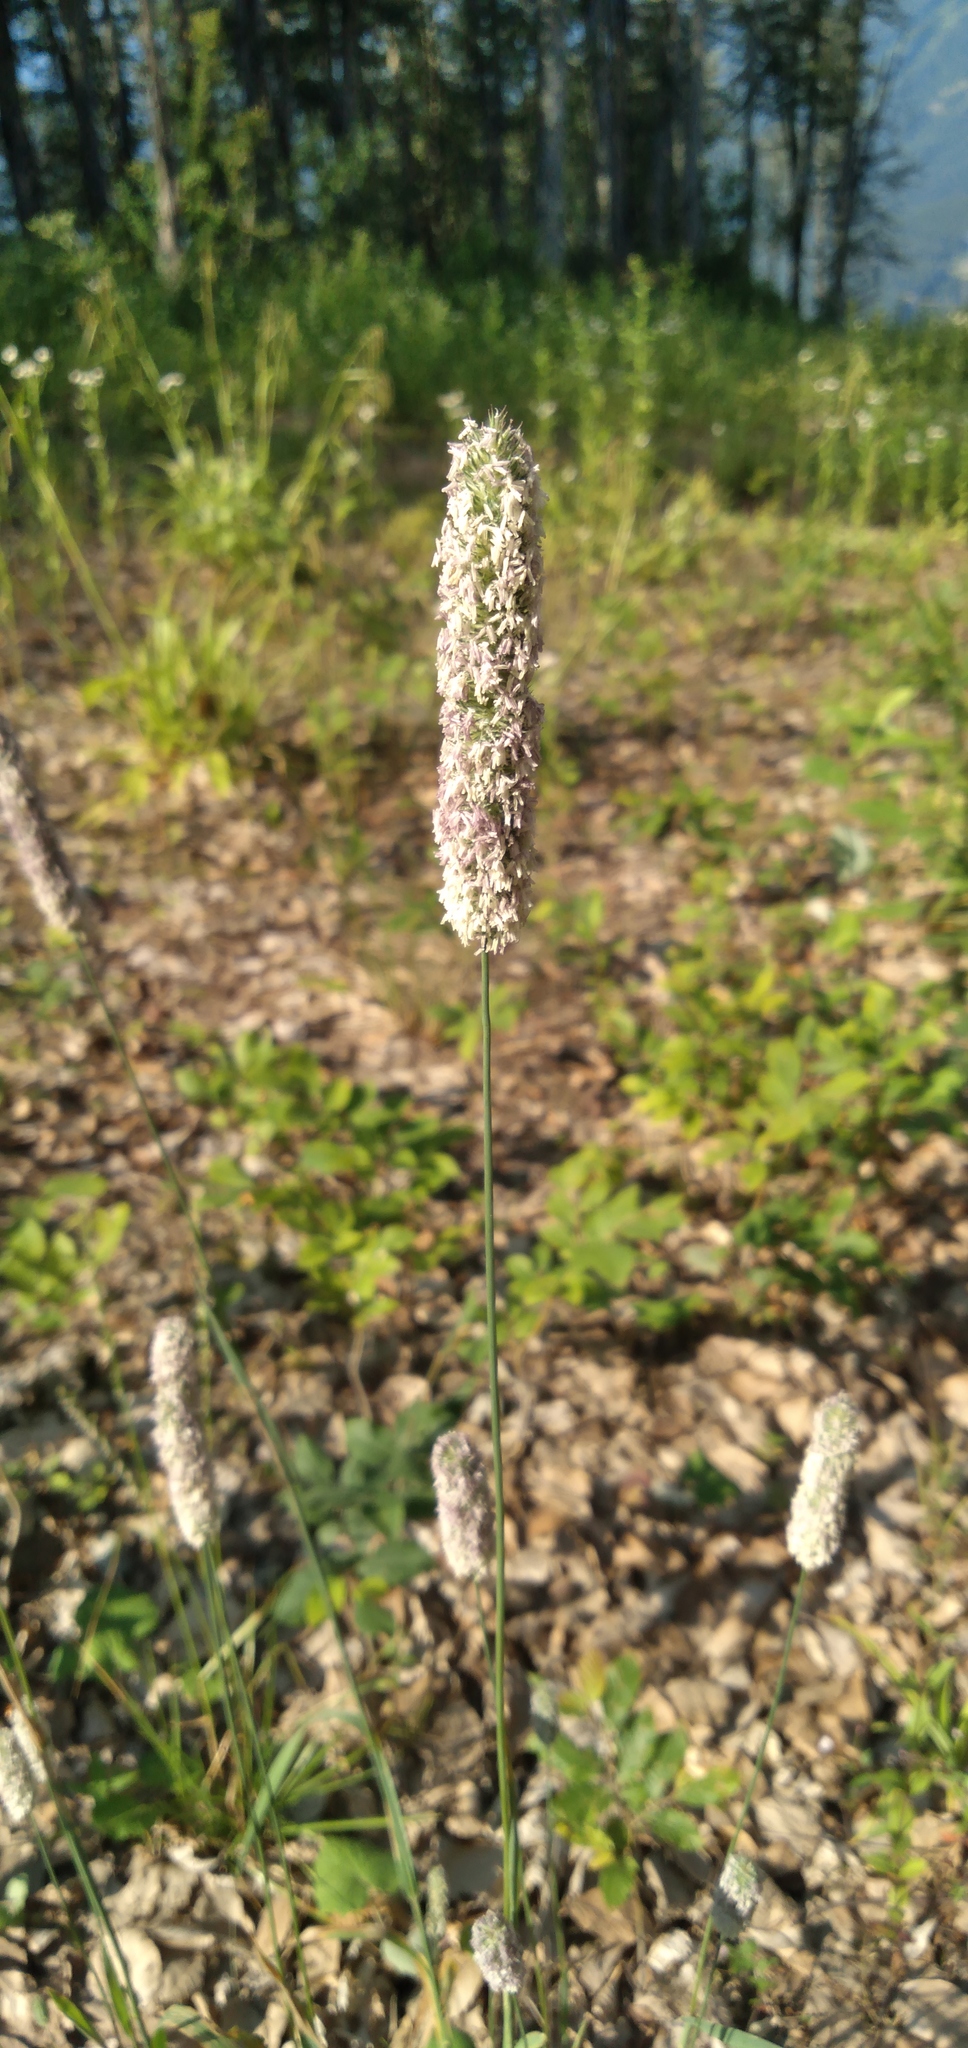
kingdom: Plantae
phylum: Tracheophyta
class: Liliopsida
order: Poales
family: Poaceae
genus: Phleum
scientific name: Phleum pratense
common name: Timothy grass
